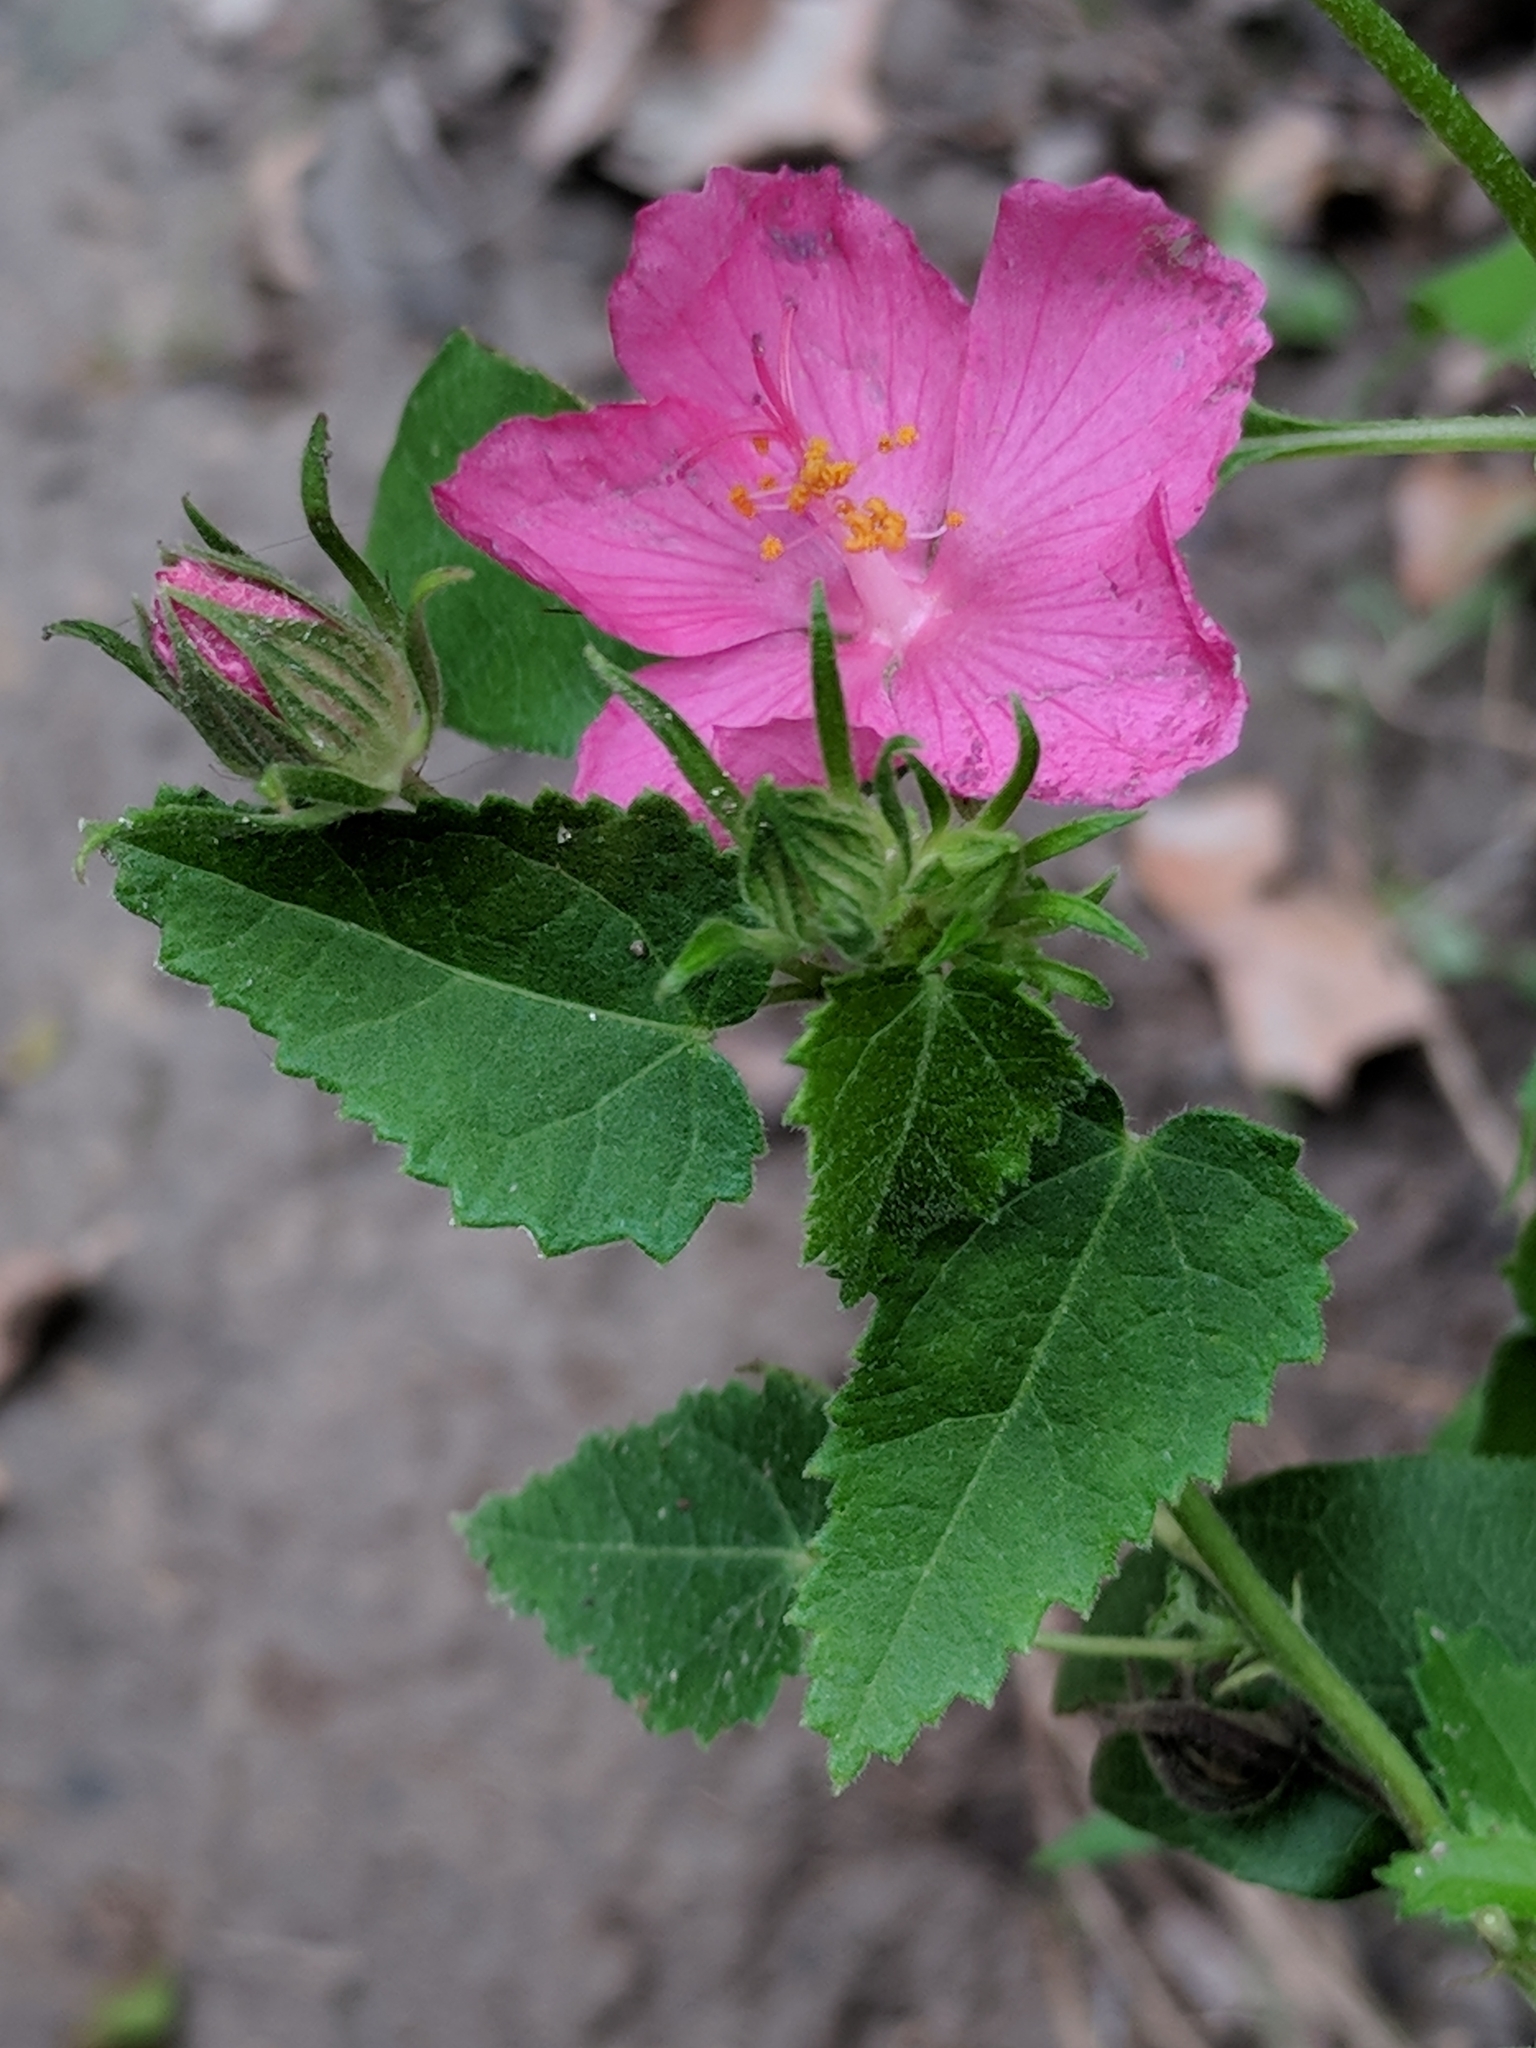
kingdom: Plantae
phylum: Tracheophyta
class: Magnoliopsida
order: Malvales
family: Malvaceae
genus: Pavonia
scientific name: Pavonia lasiopetala
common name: Texas swamp-mallow
